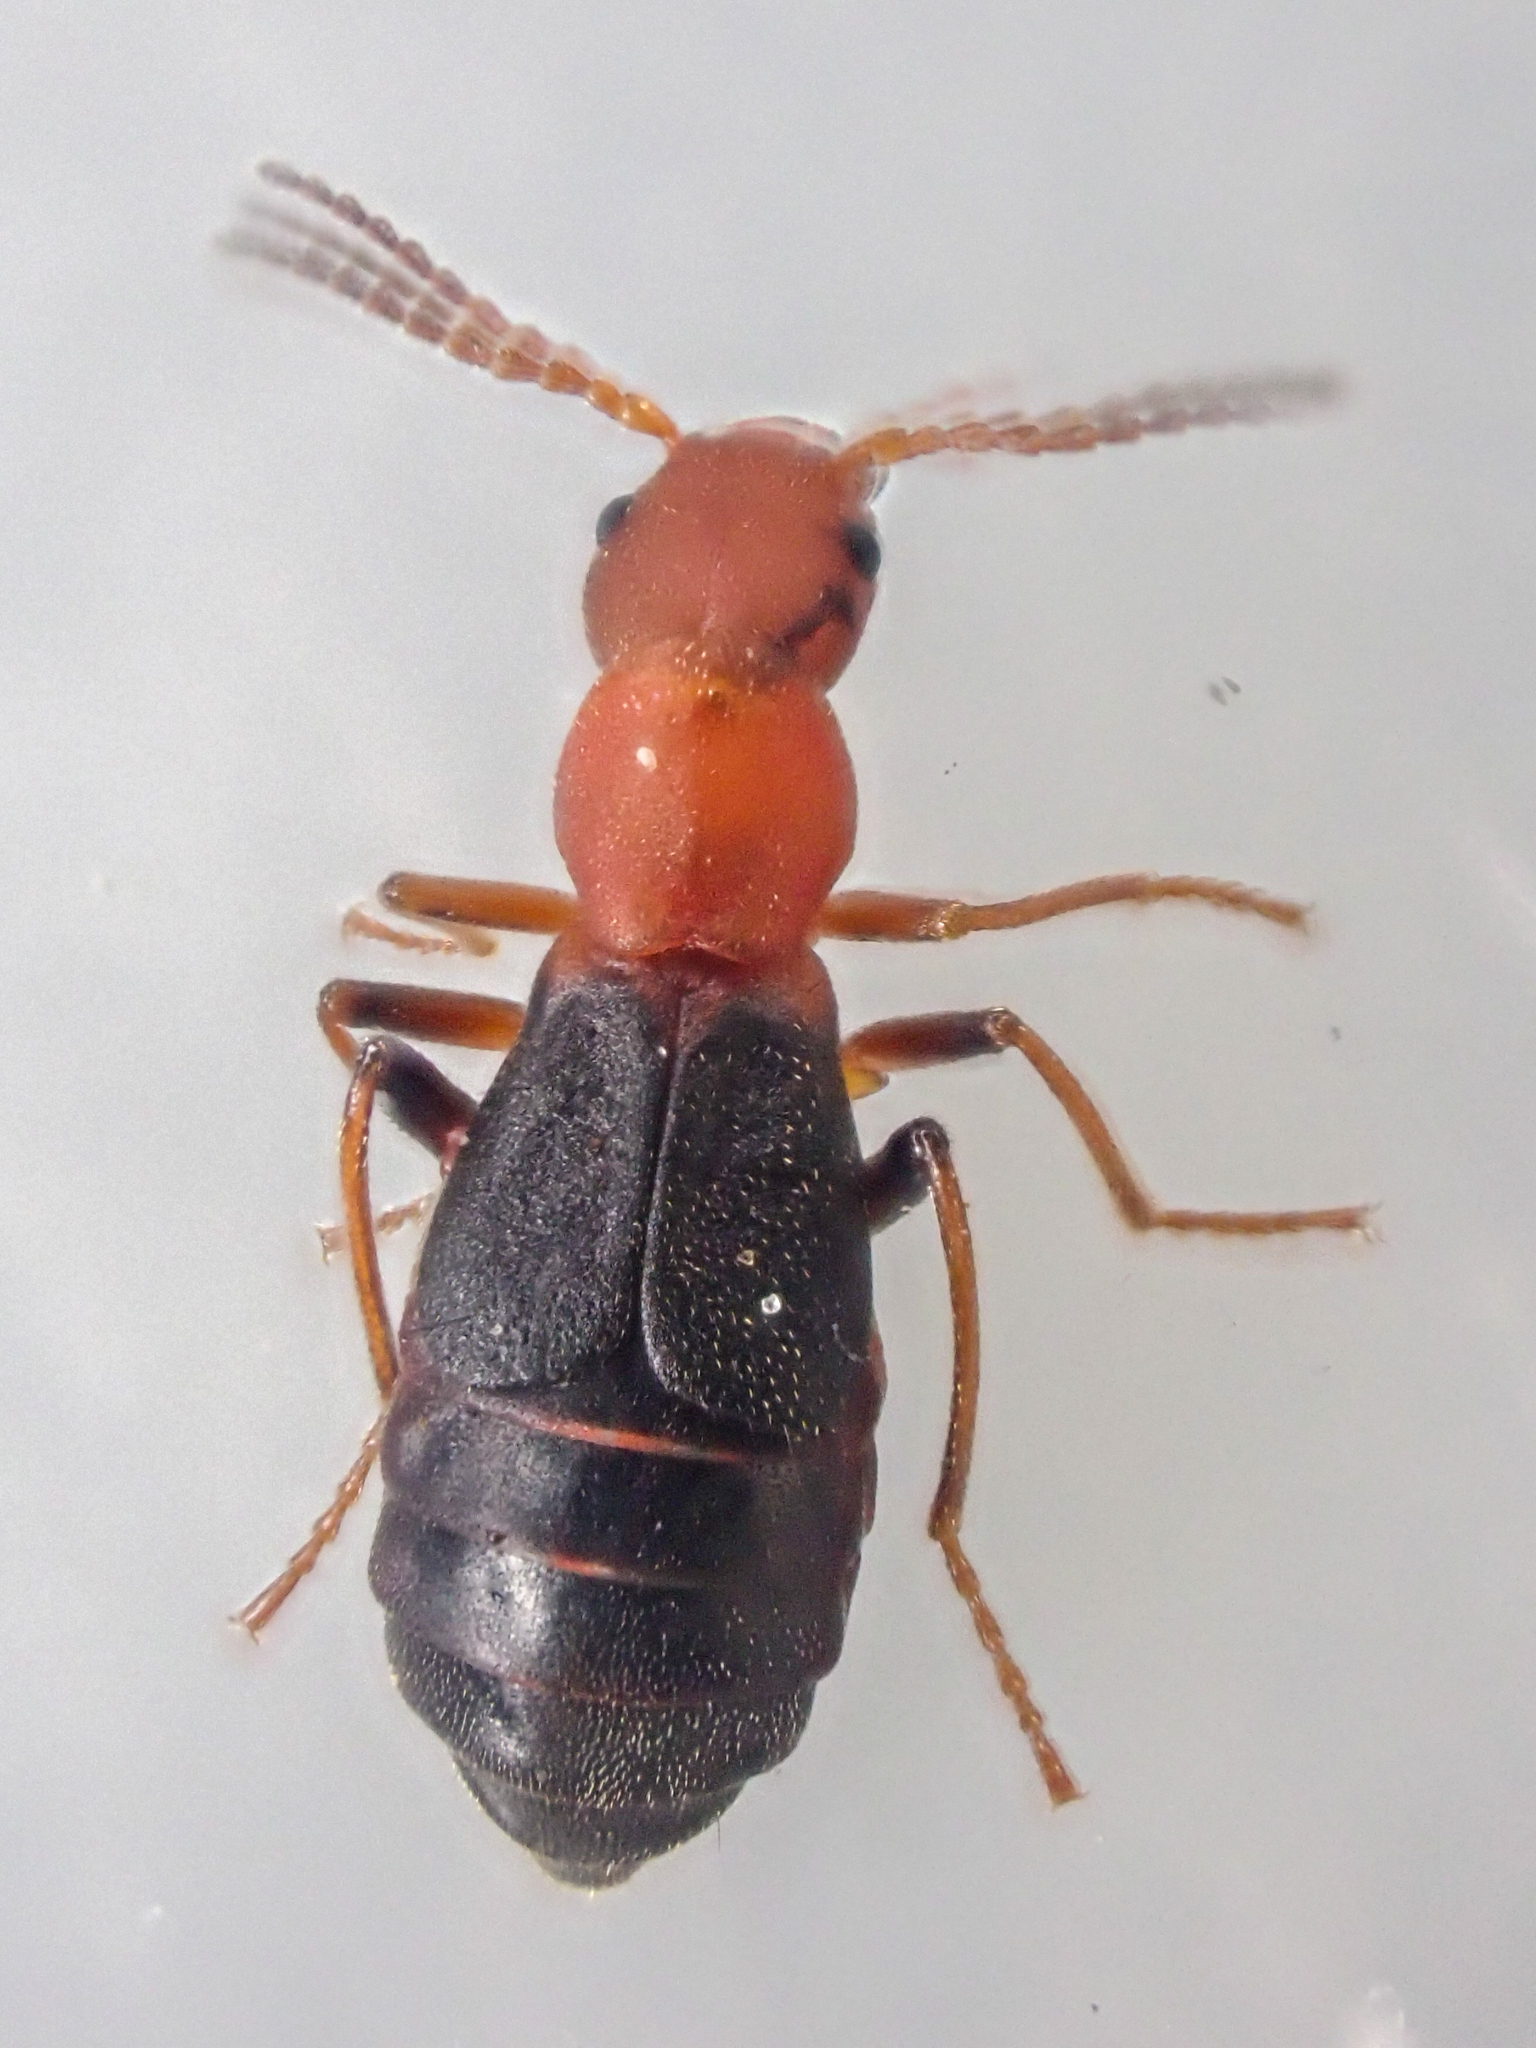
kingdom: Animalia
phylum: Arthropoda
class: Insecta
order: Coleoptera
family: Melyridae
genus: Endeodes
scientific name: Endeodes basalis
